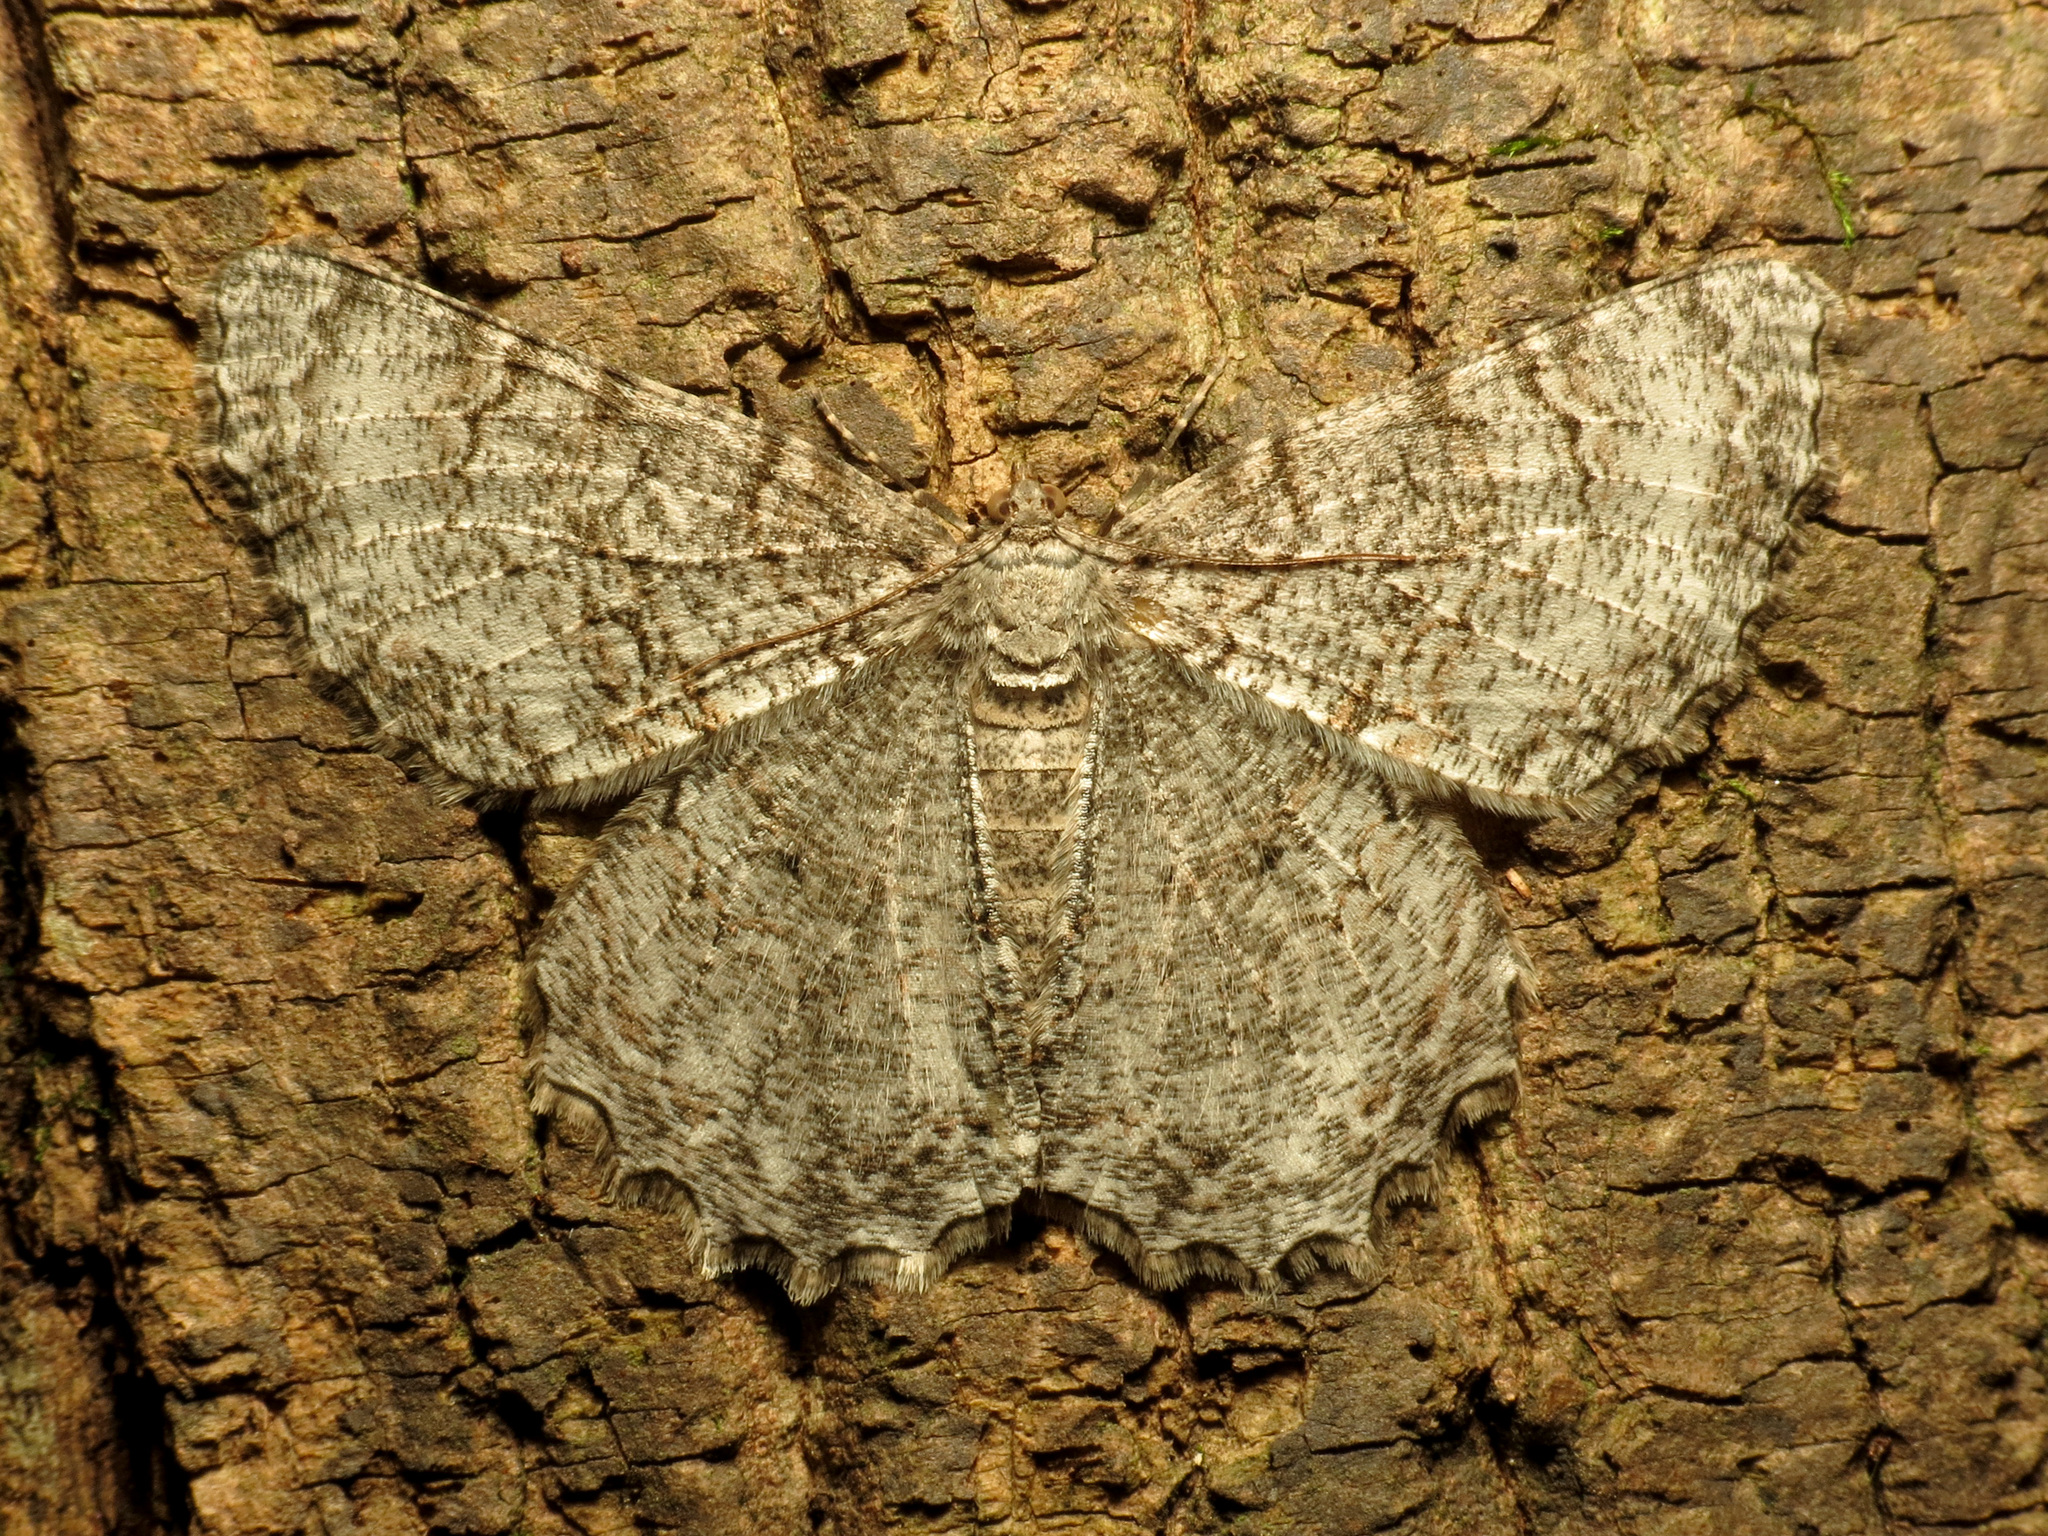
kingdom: Animalia
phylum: Arthropoda
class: Insecta
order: Lepidoptera
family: Geometridae
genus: Epimecis
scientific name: Epimecis hortaria
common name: Tulip-tree beauty
